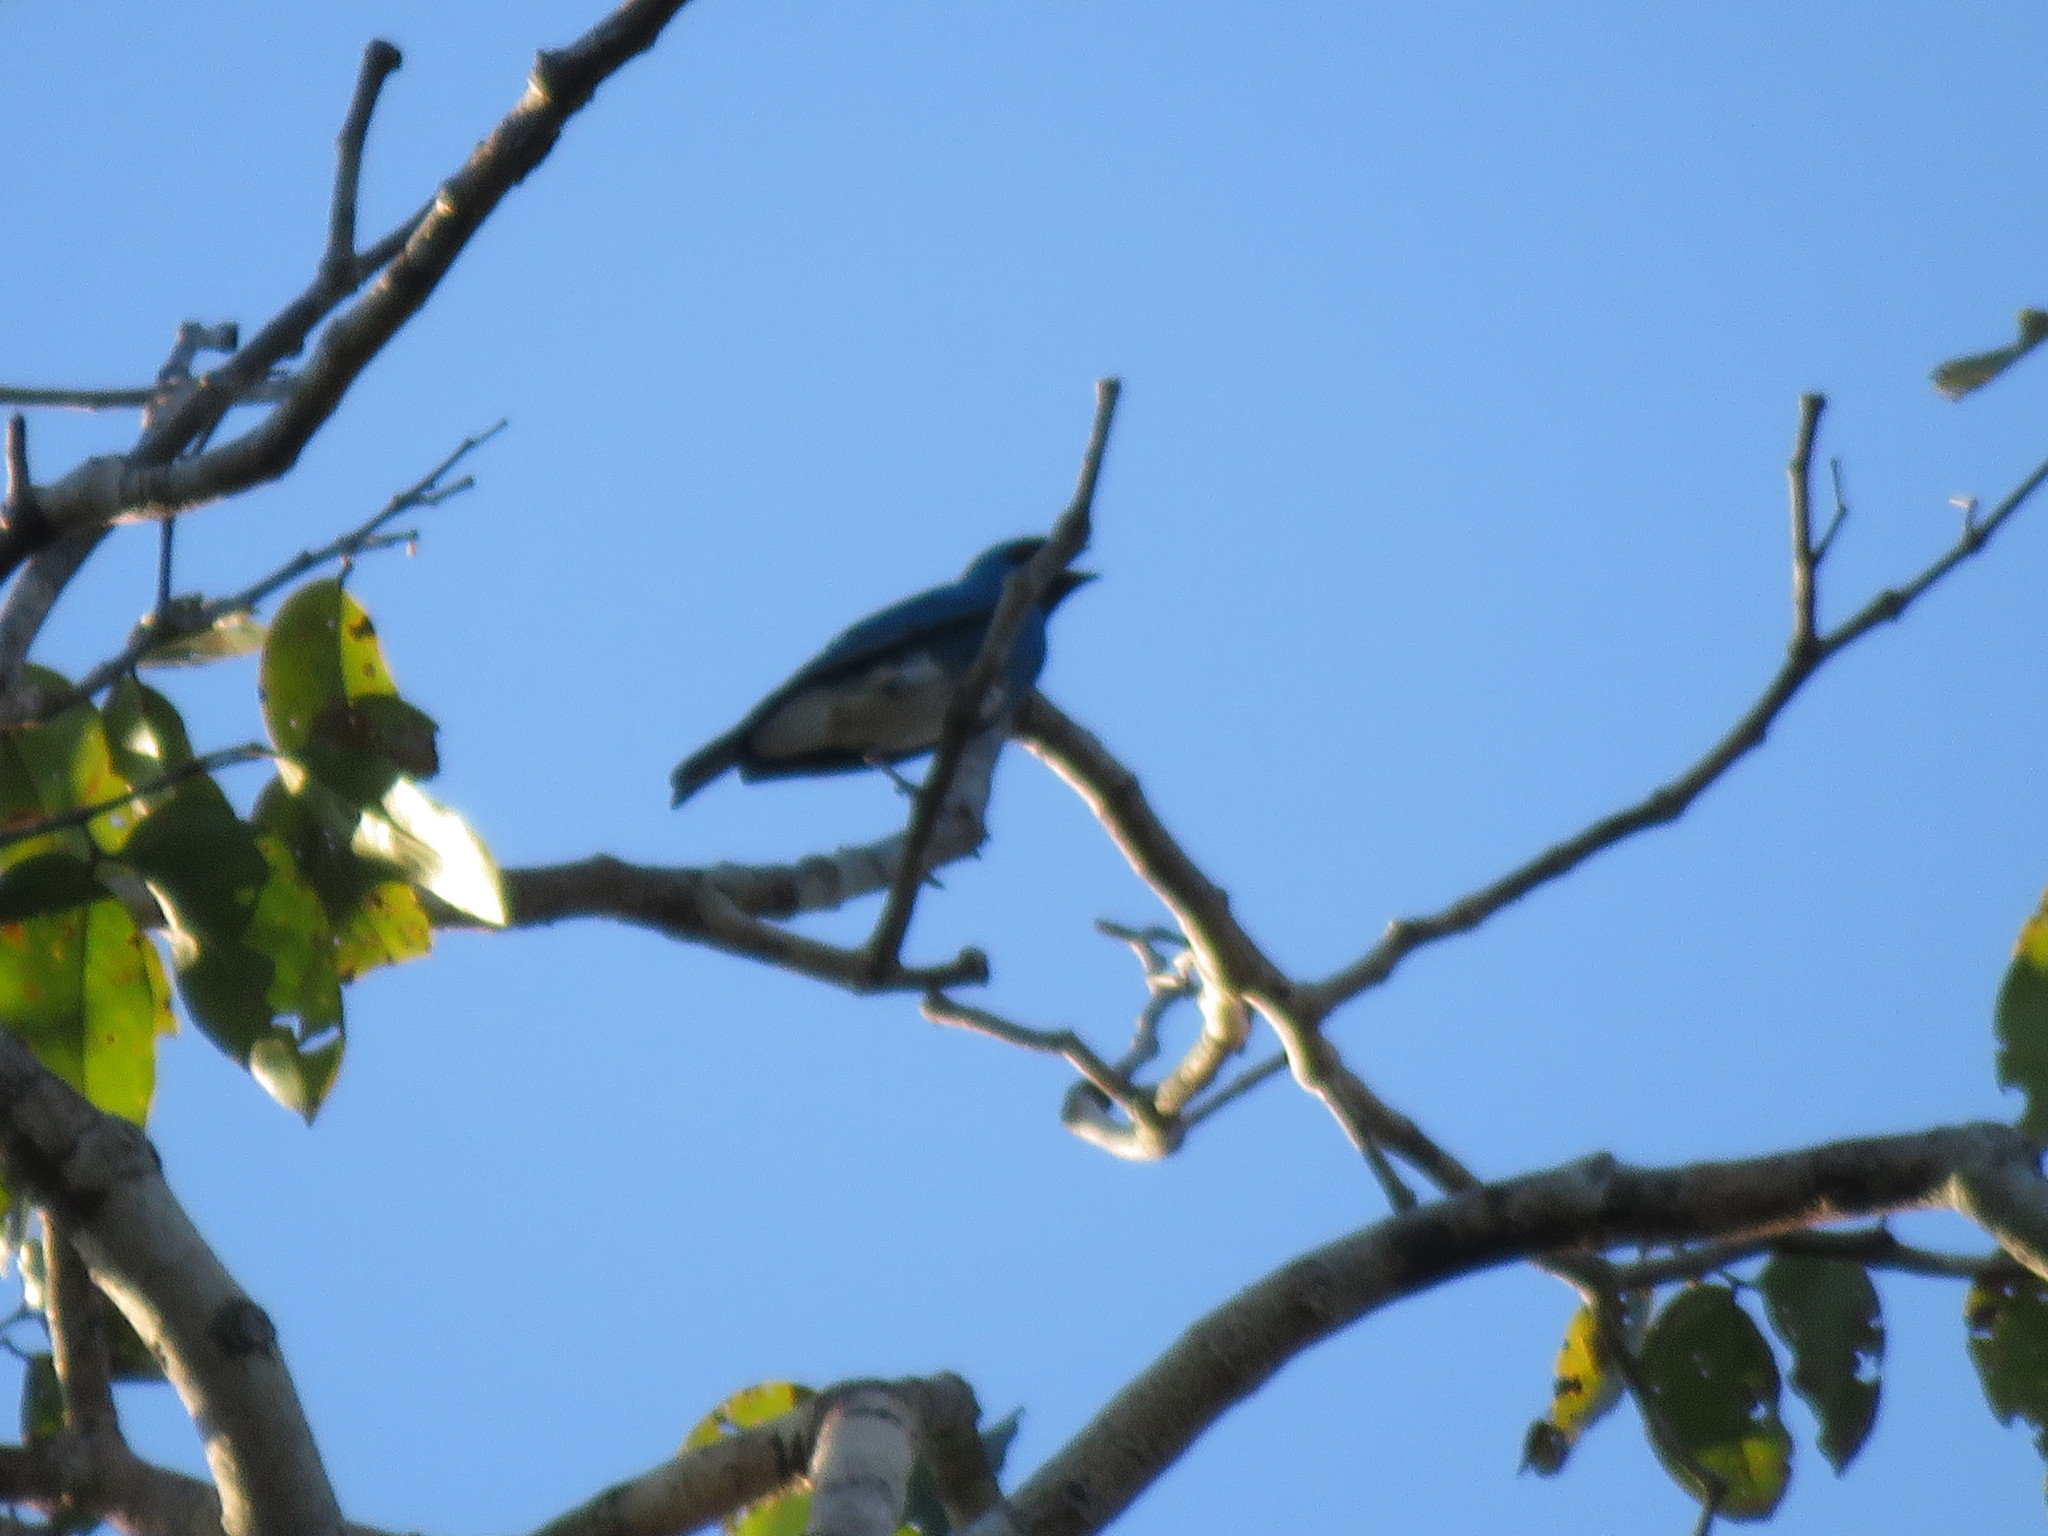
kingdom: Animalia
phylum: Chordata
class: Aves
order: Passeriformes
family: Thraupidae
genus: Tersina
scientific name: Tersina viridis
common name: Swallow tanager
